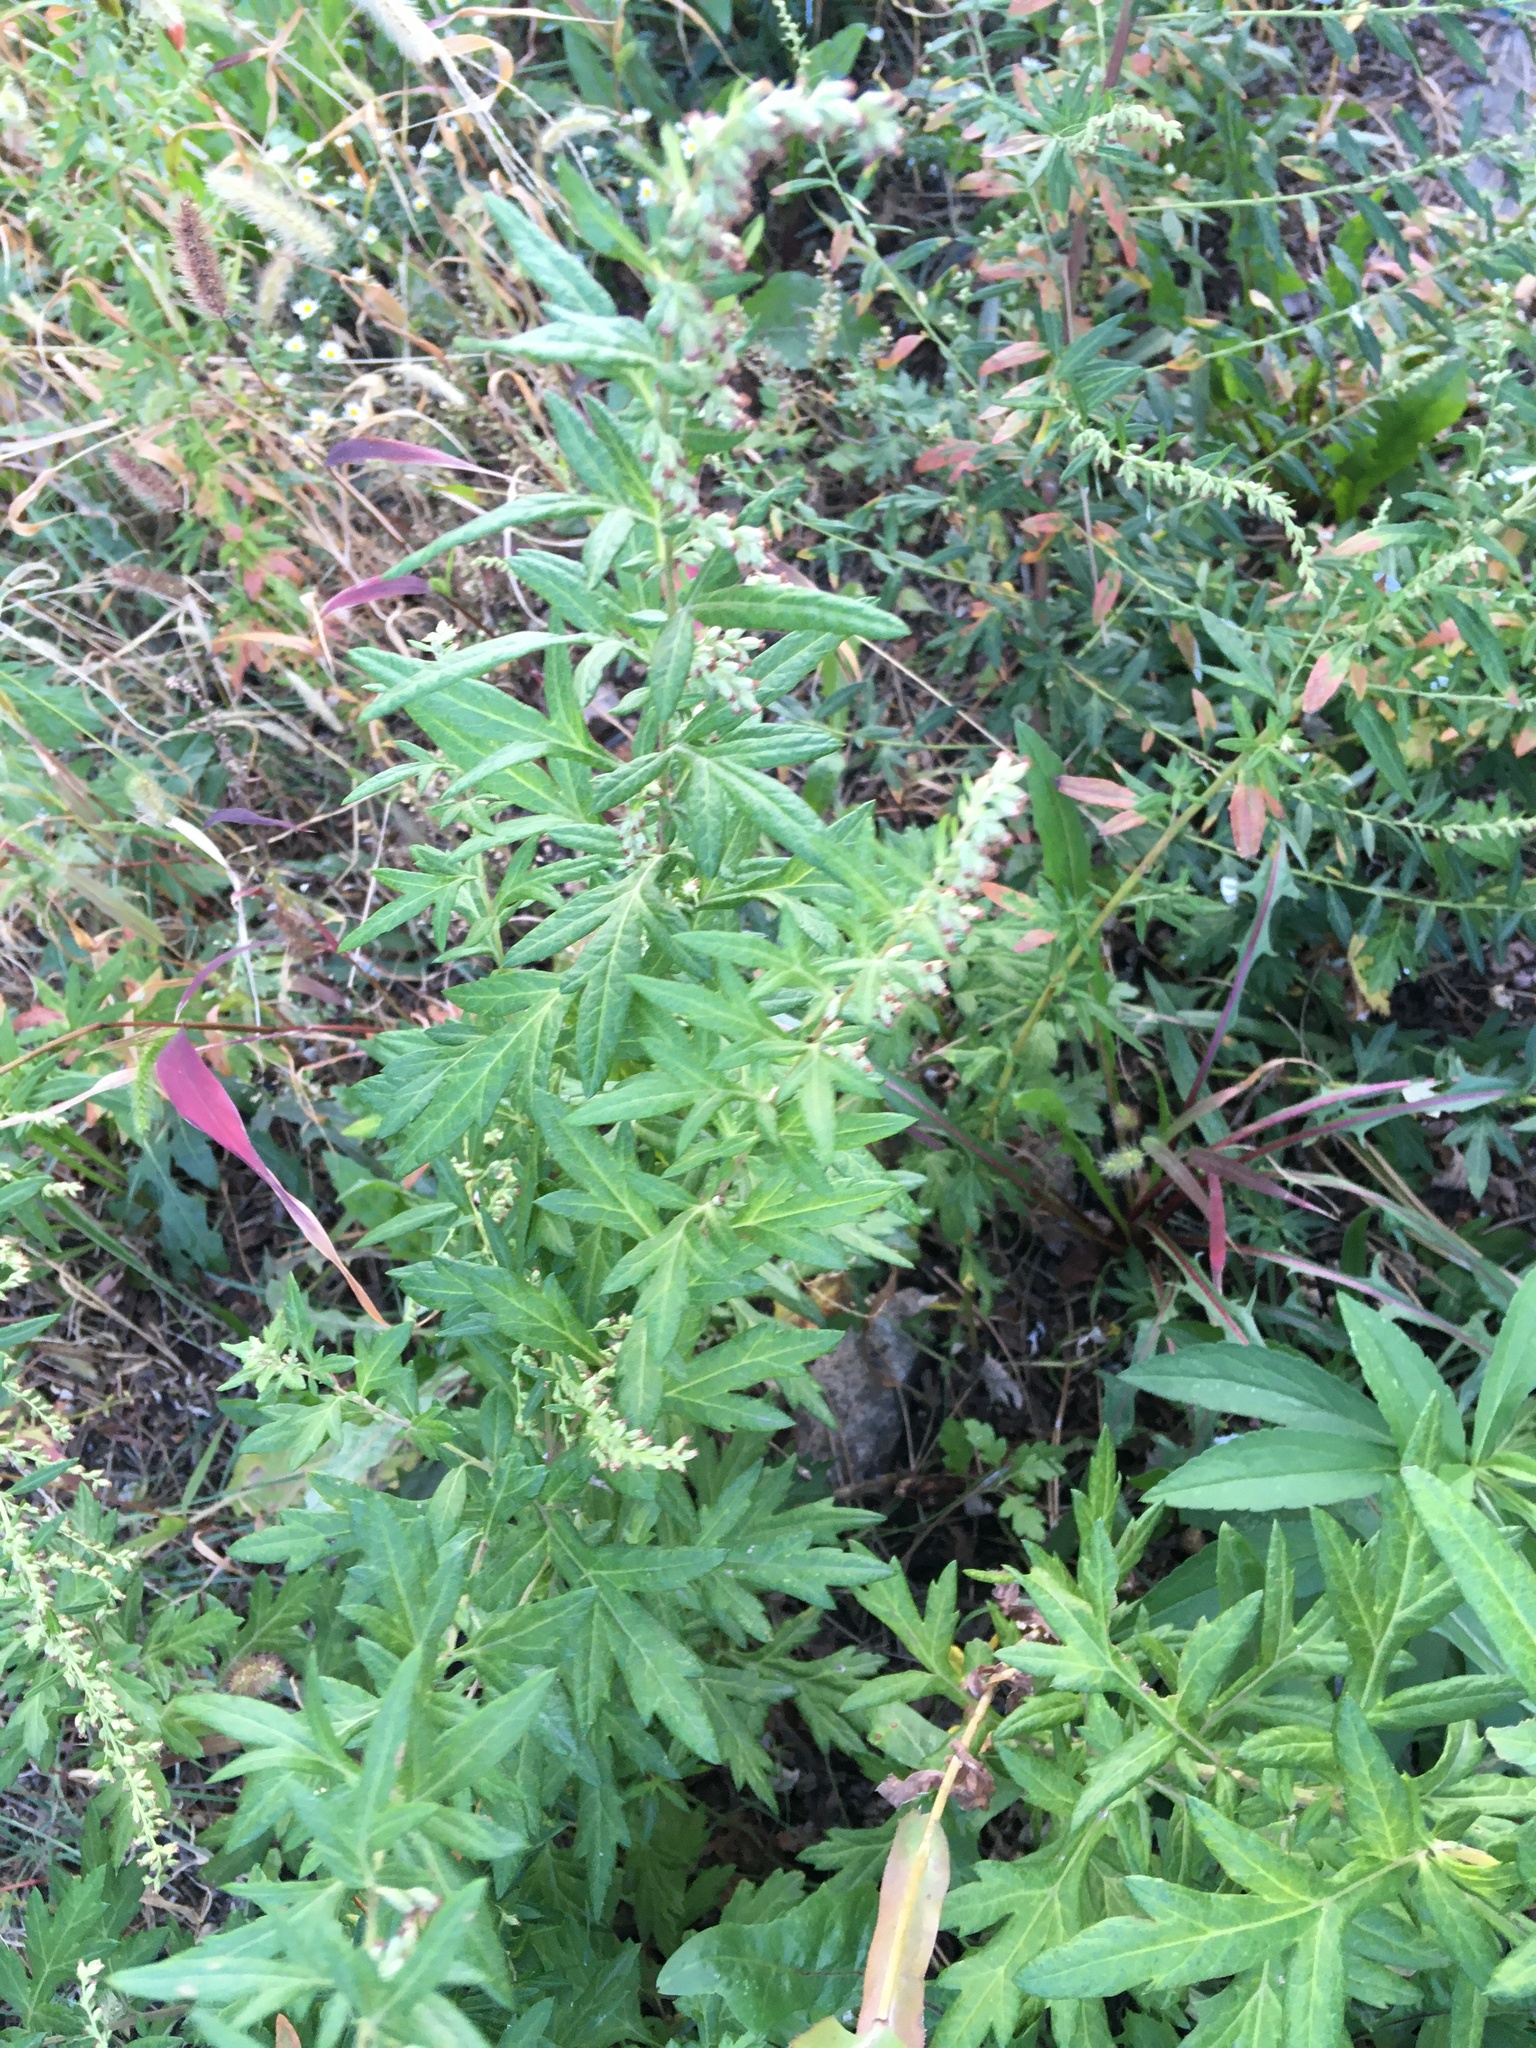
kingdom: Plantae
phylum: Tracheophyta
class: Magnoliopsida
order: Asterales
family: Asteraceae
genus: Artemisia
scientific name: Artemisia vulgaris
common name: Mugwort
